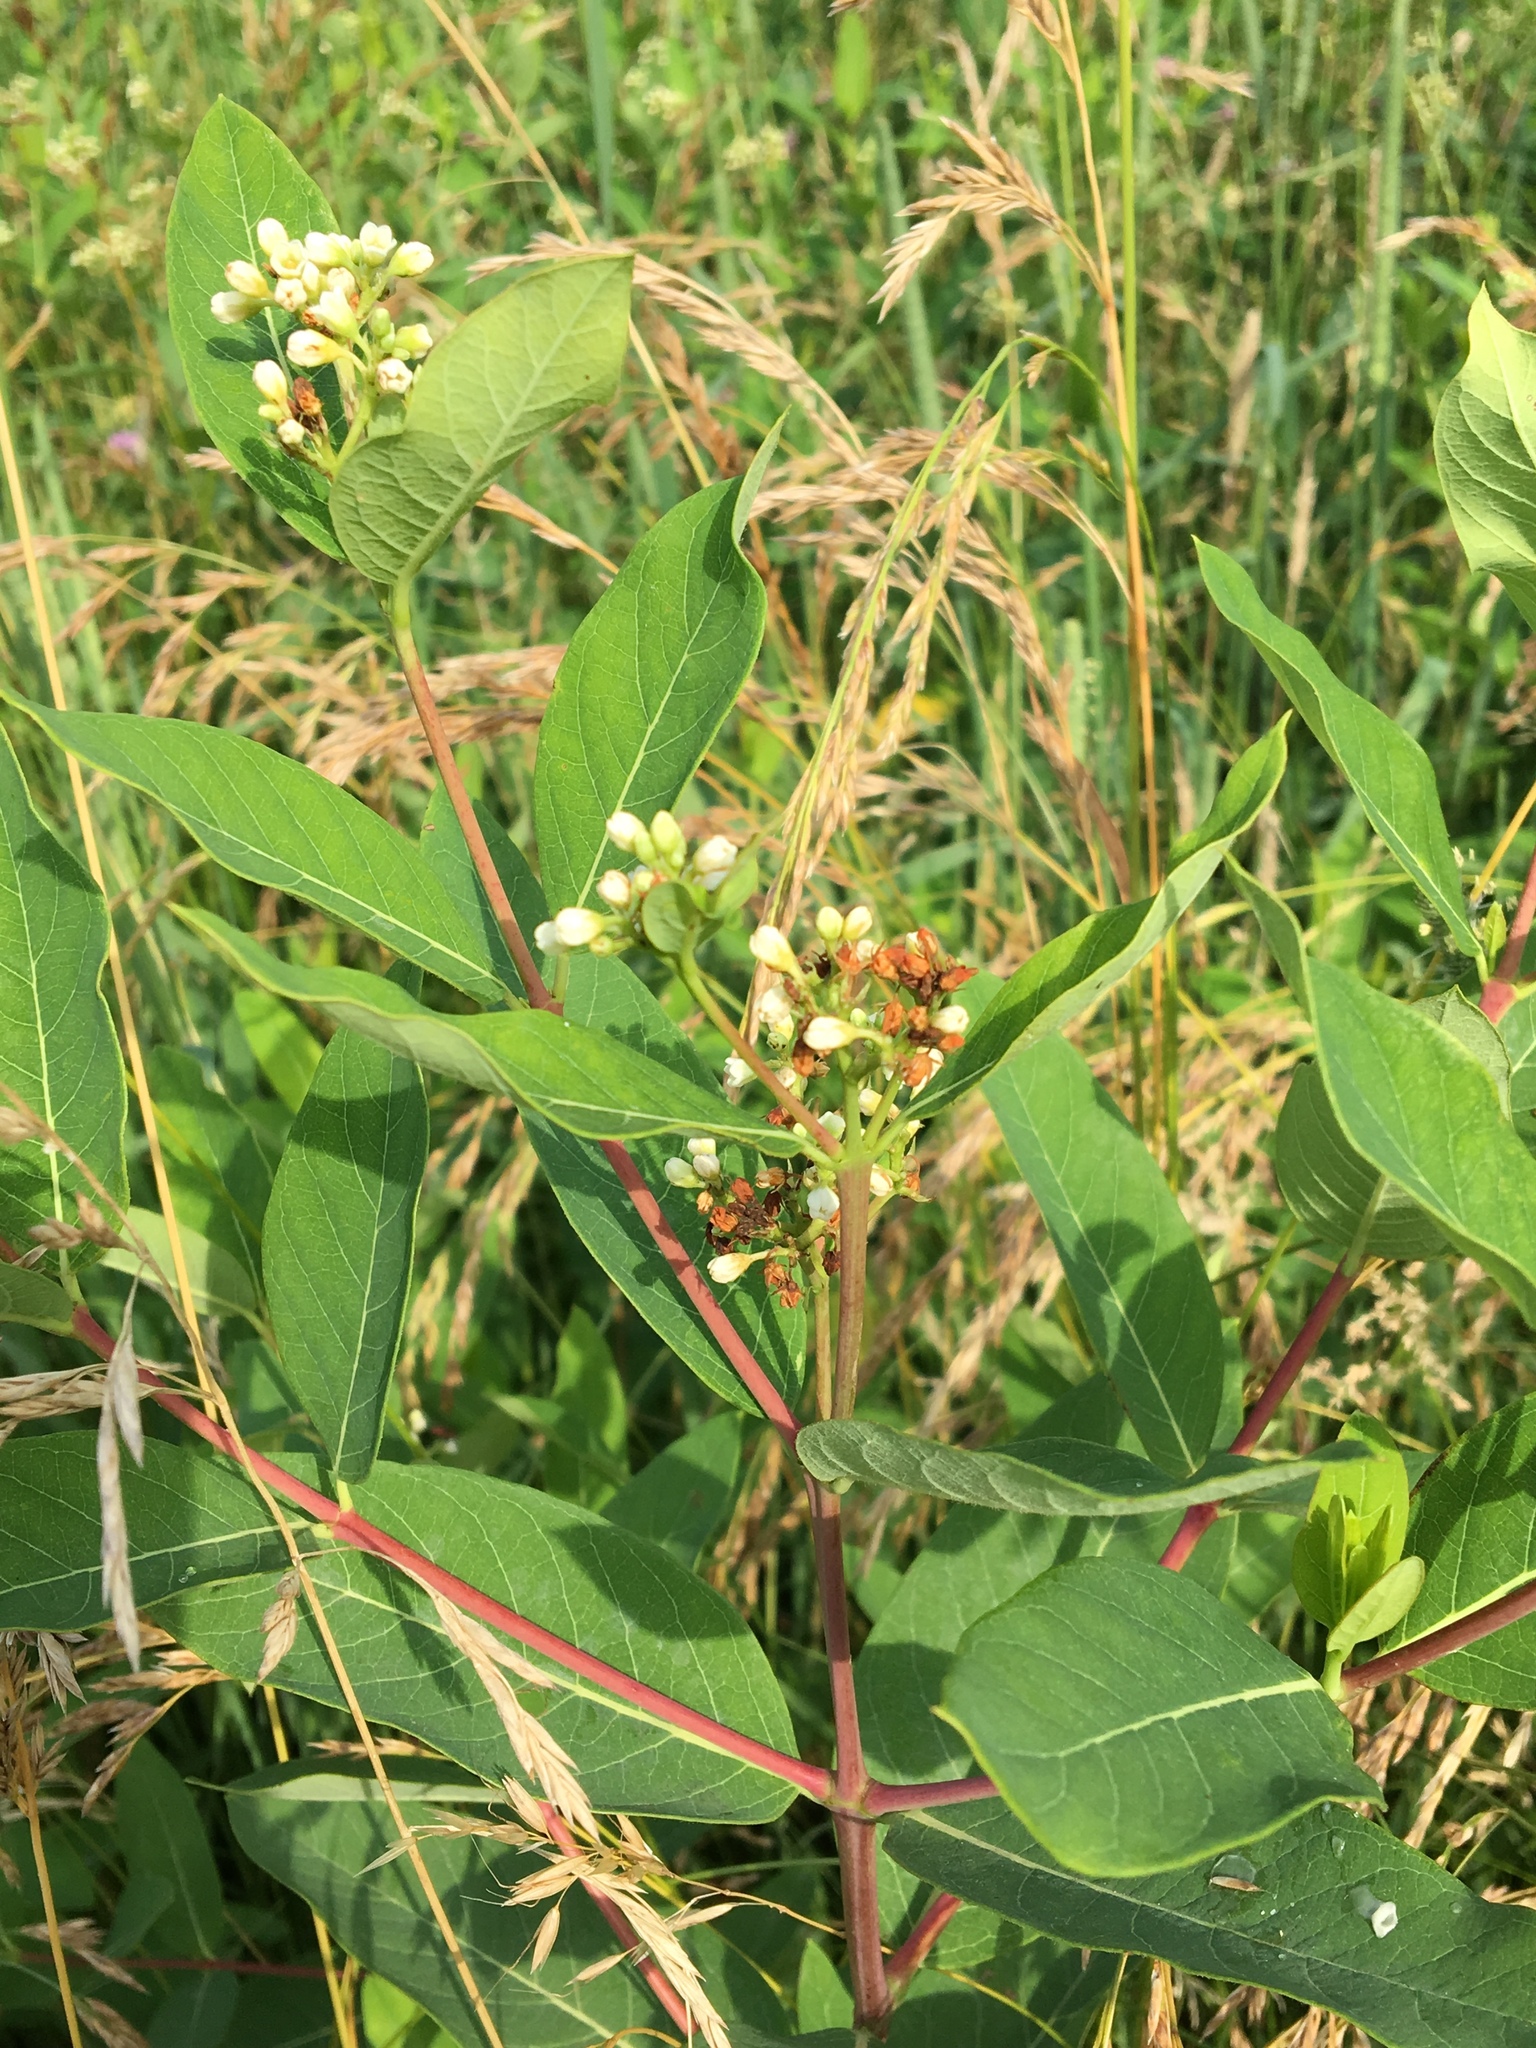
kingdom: Plantae
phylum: Tracheophyta
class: Magnoliopsida
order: Gentianales
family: Apocynaceae
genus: Apocynum
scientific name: Apocynum cannabinum
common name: Hemp dogbane
